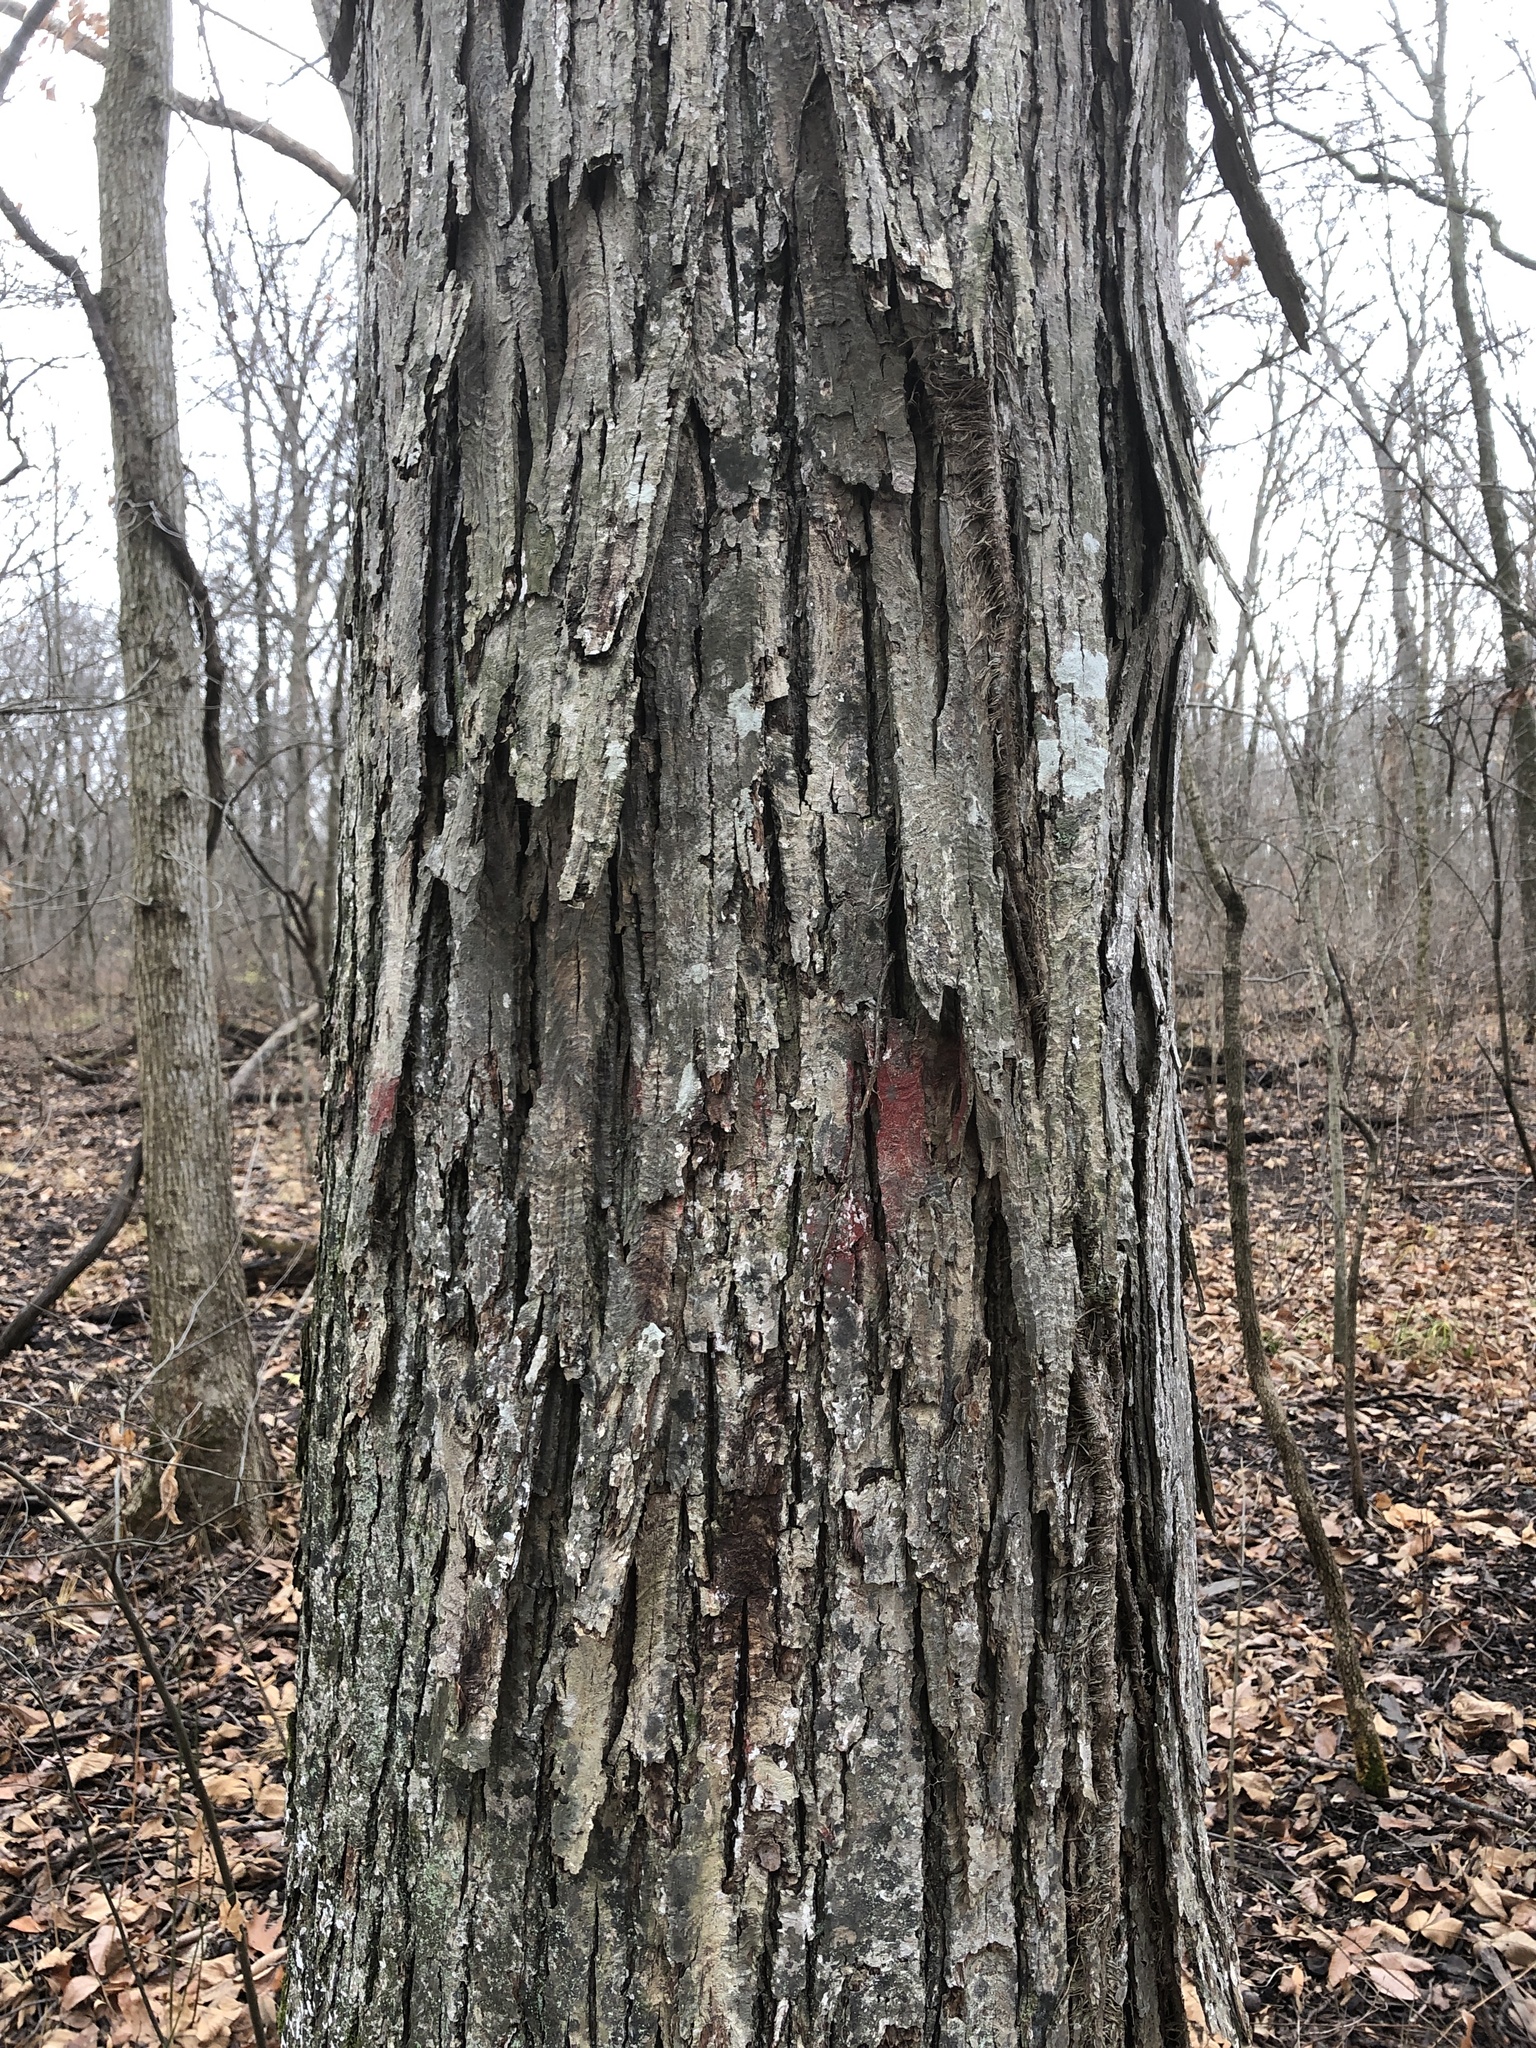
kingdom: Plantae
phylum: Tracheophyta
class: Magnoliopsida
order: Fagales
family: Juglandaceae
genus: Carya
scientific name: Carya ovata
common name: Shagbark hickory
